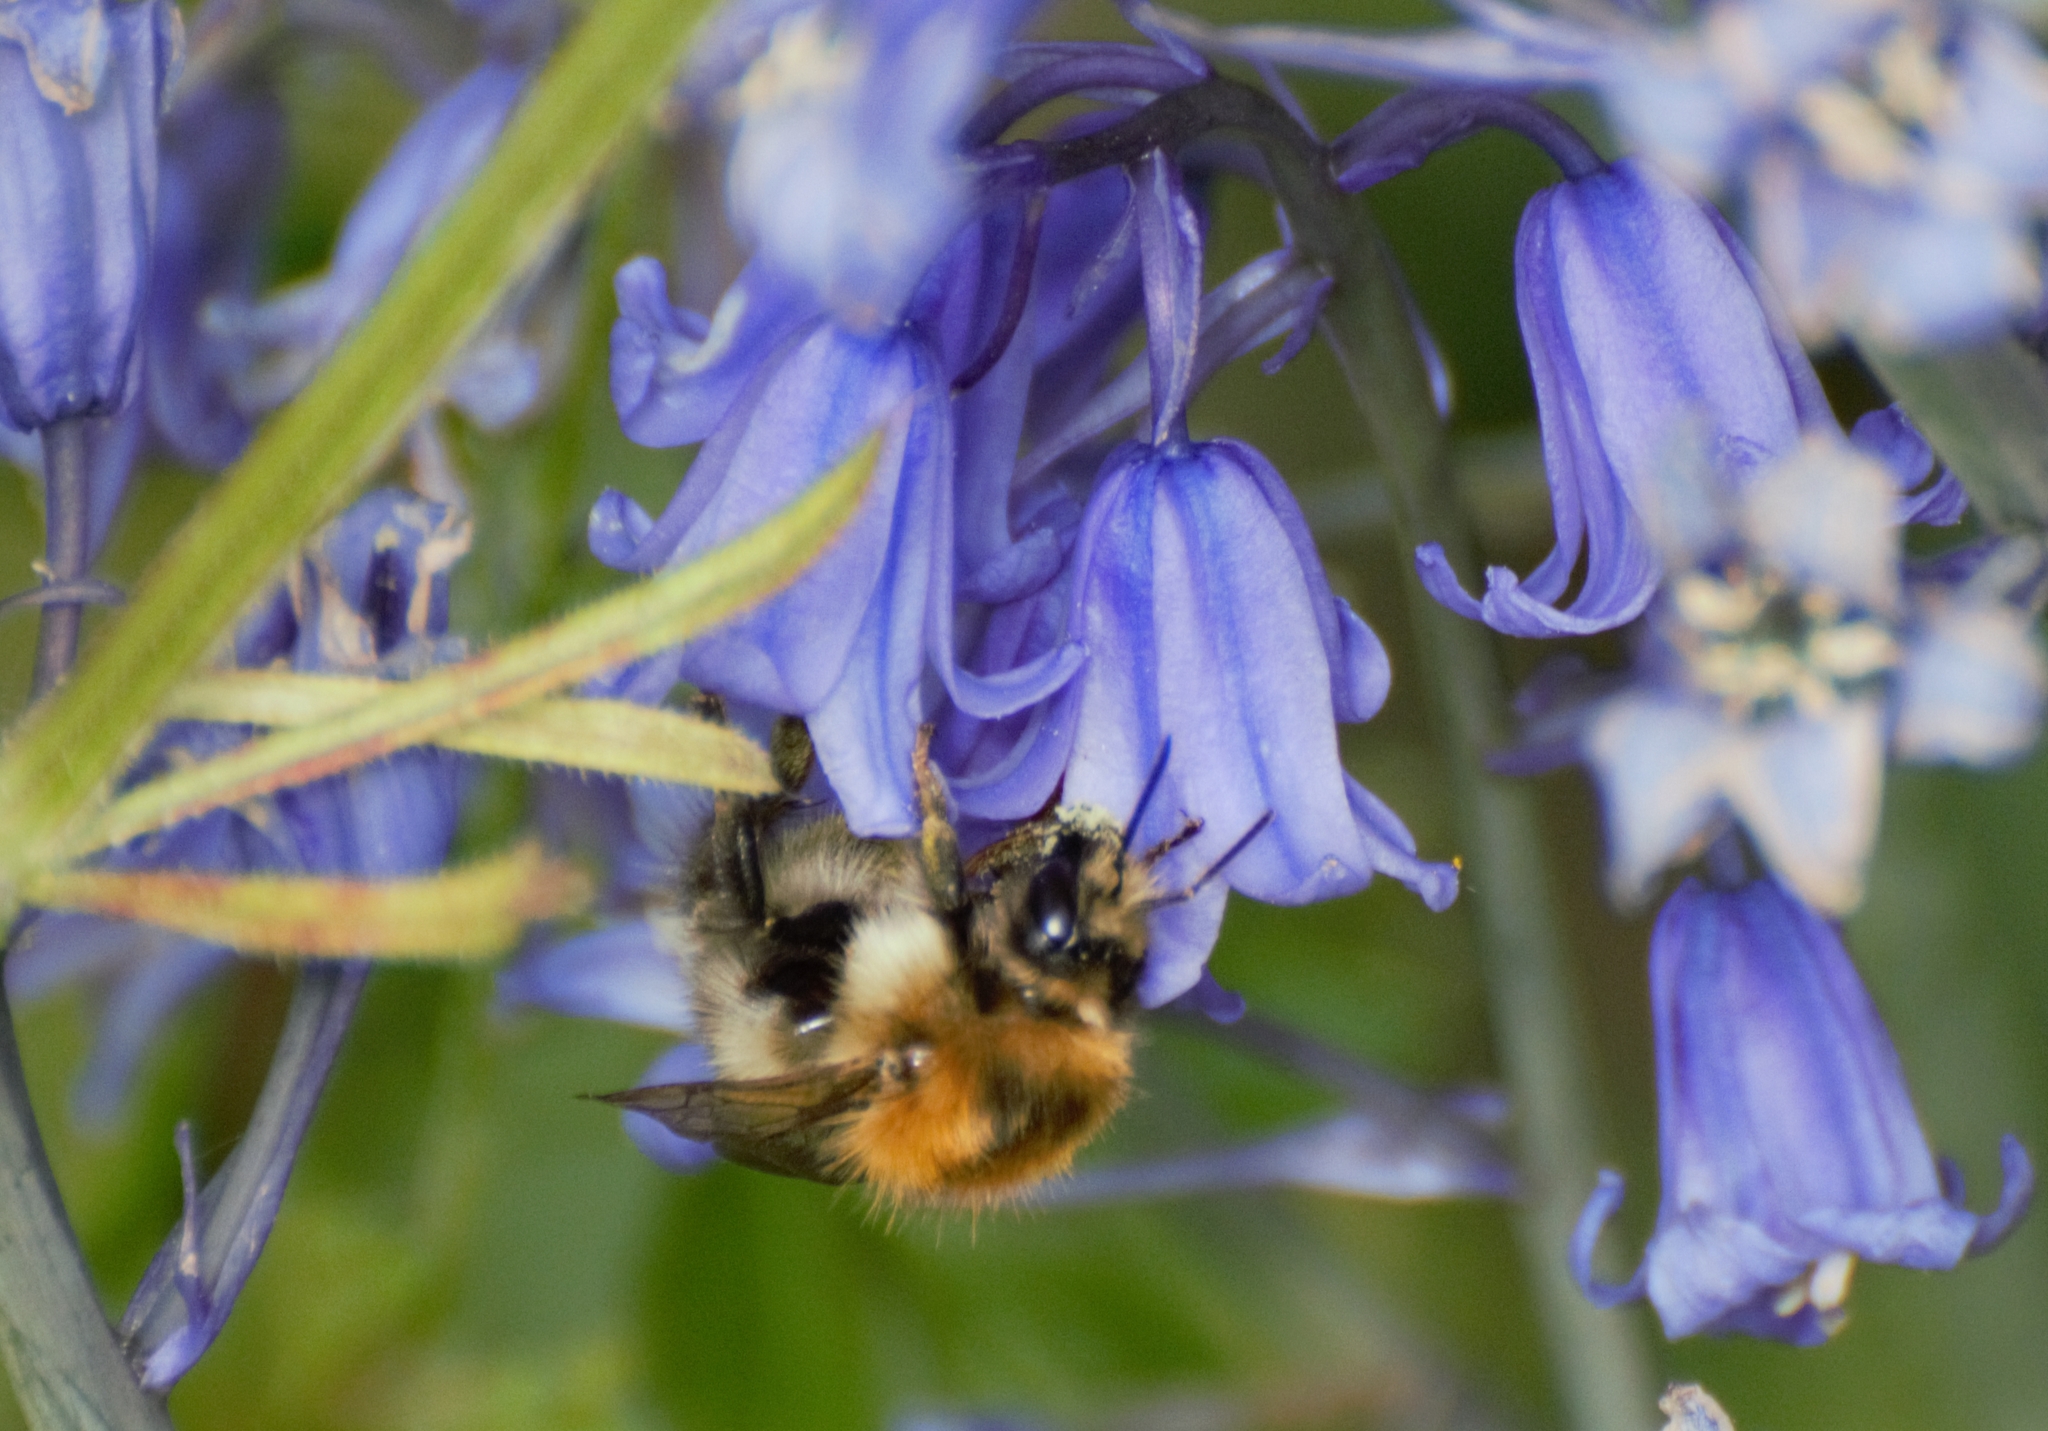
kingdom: Animalia
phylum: Arthropoda
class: Insecta
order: Hymenoptera
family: Apidae
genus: Bombus
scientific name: Bombus pascuorum
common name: Common carder bee
